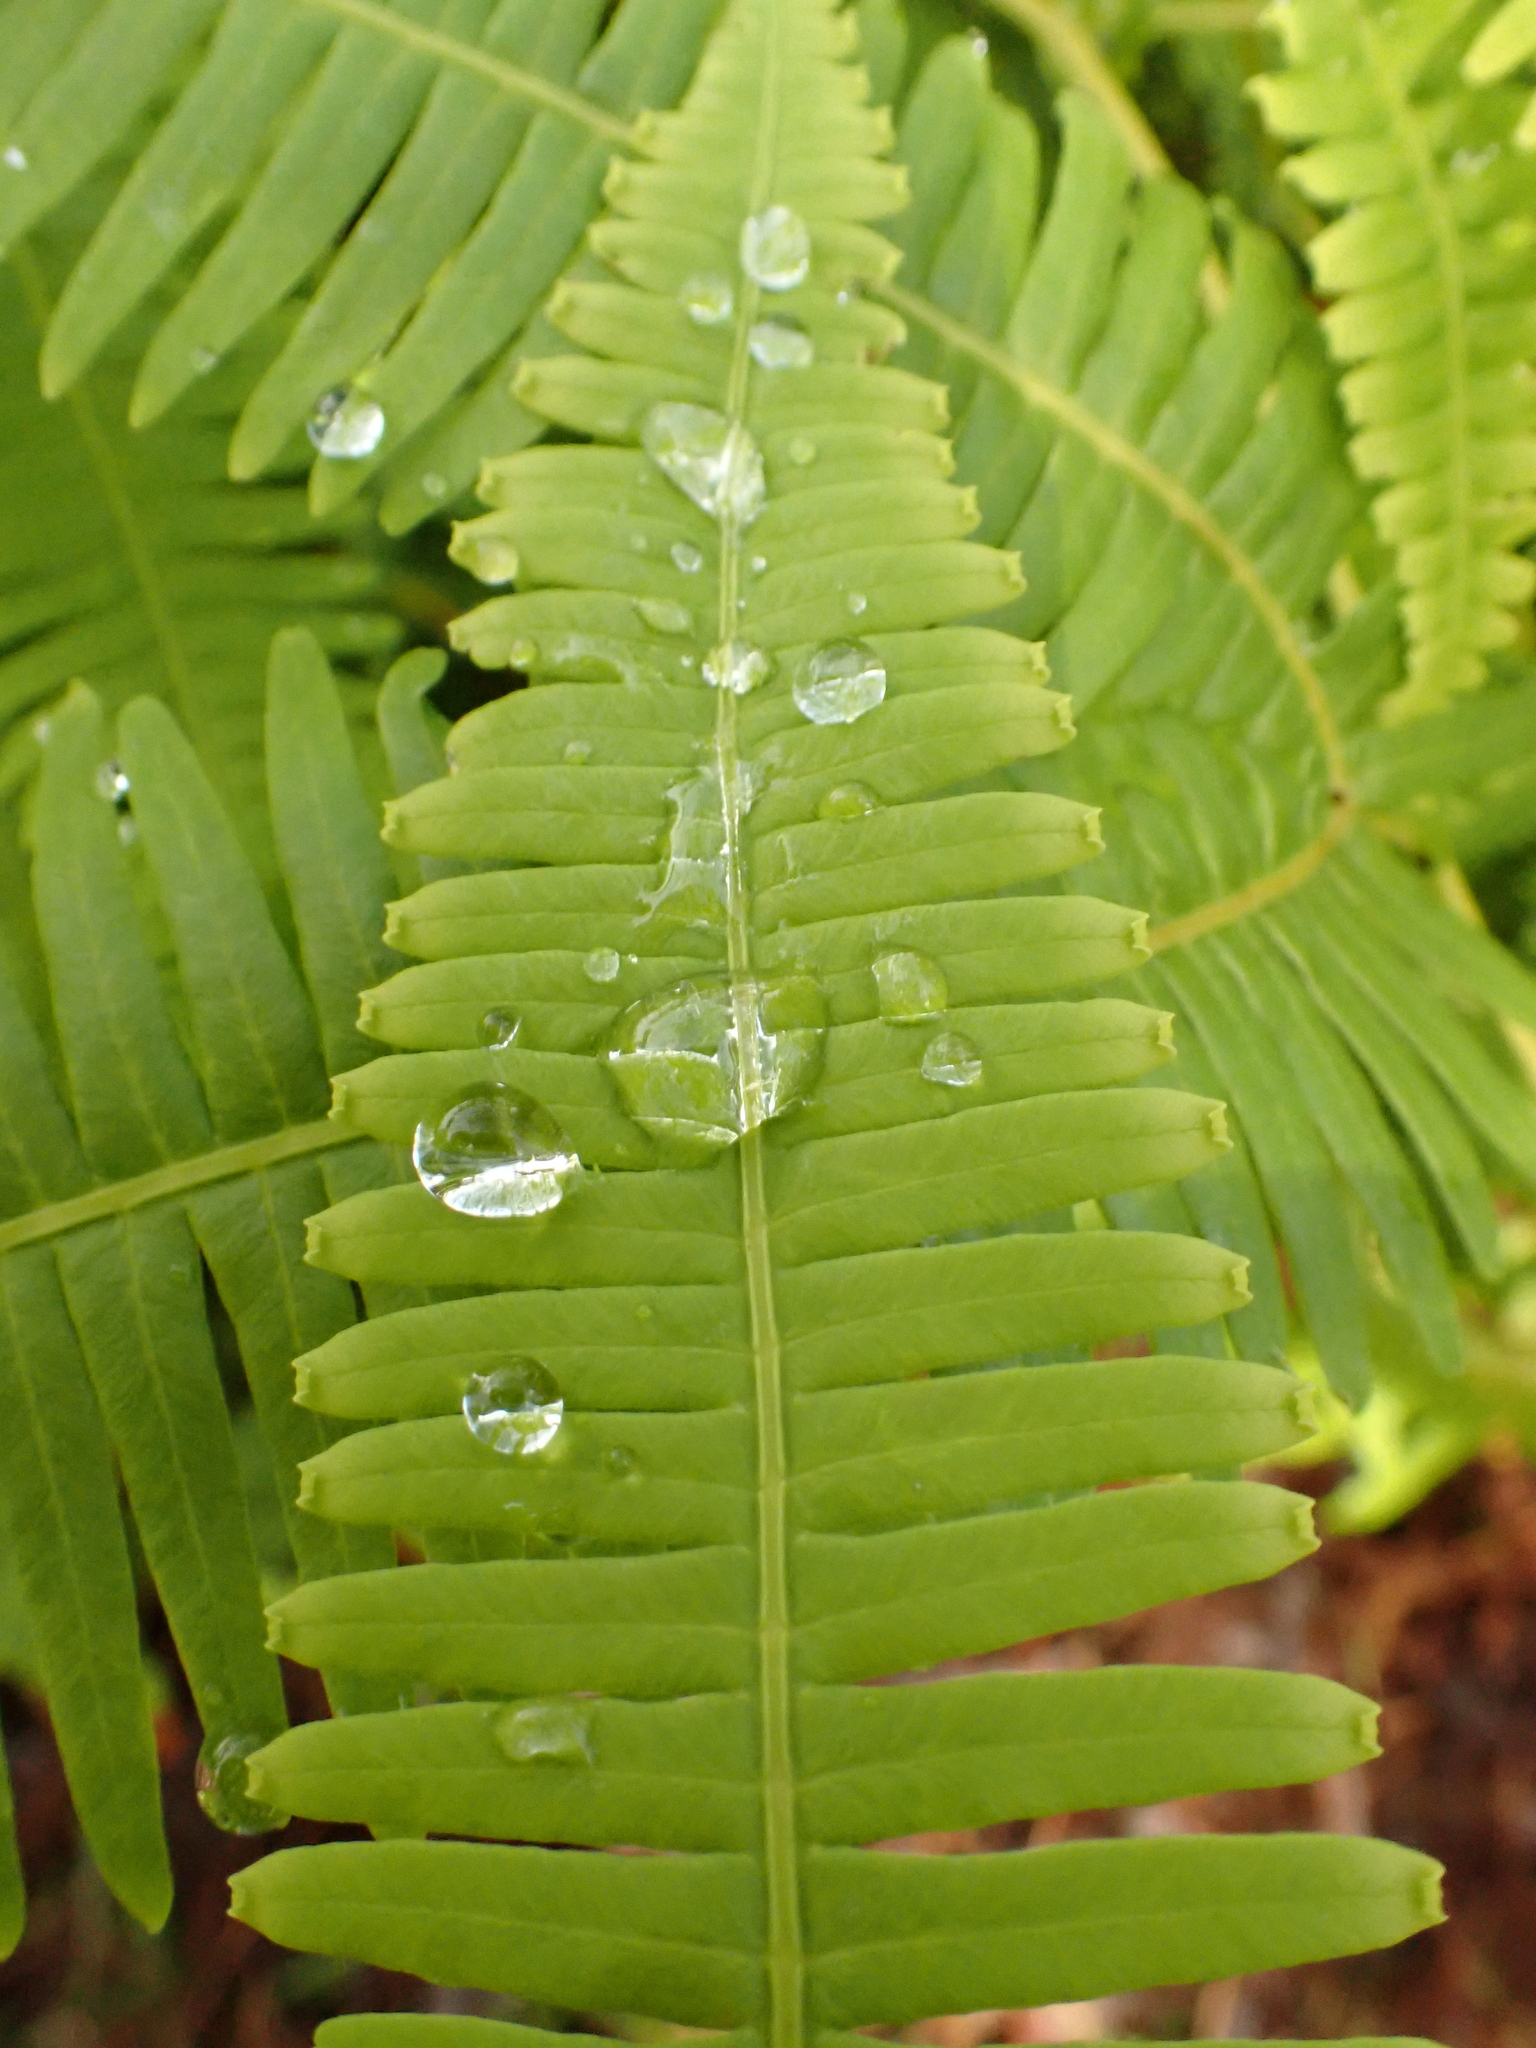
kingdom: Plantae
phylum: Tracheophyta
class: Polypodiopsida
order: Gleicheniales
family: Gleicheniaceae
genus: Gleichenella
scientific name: Gleichenella pectinata
